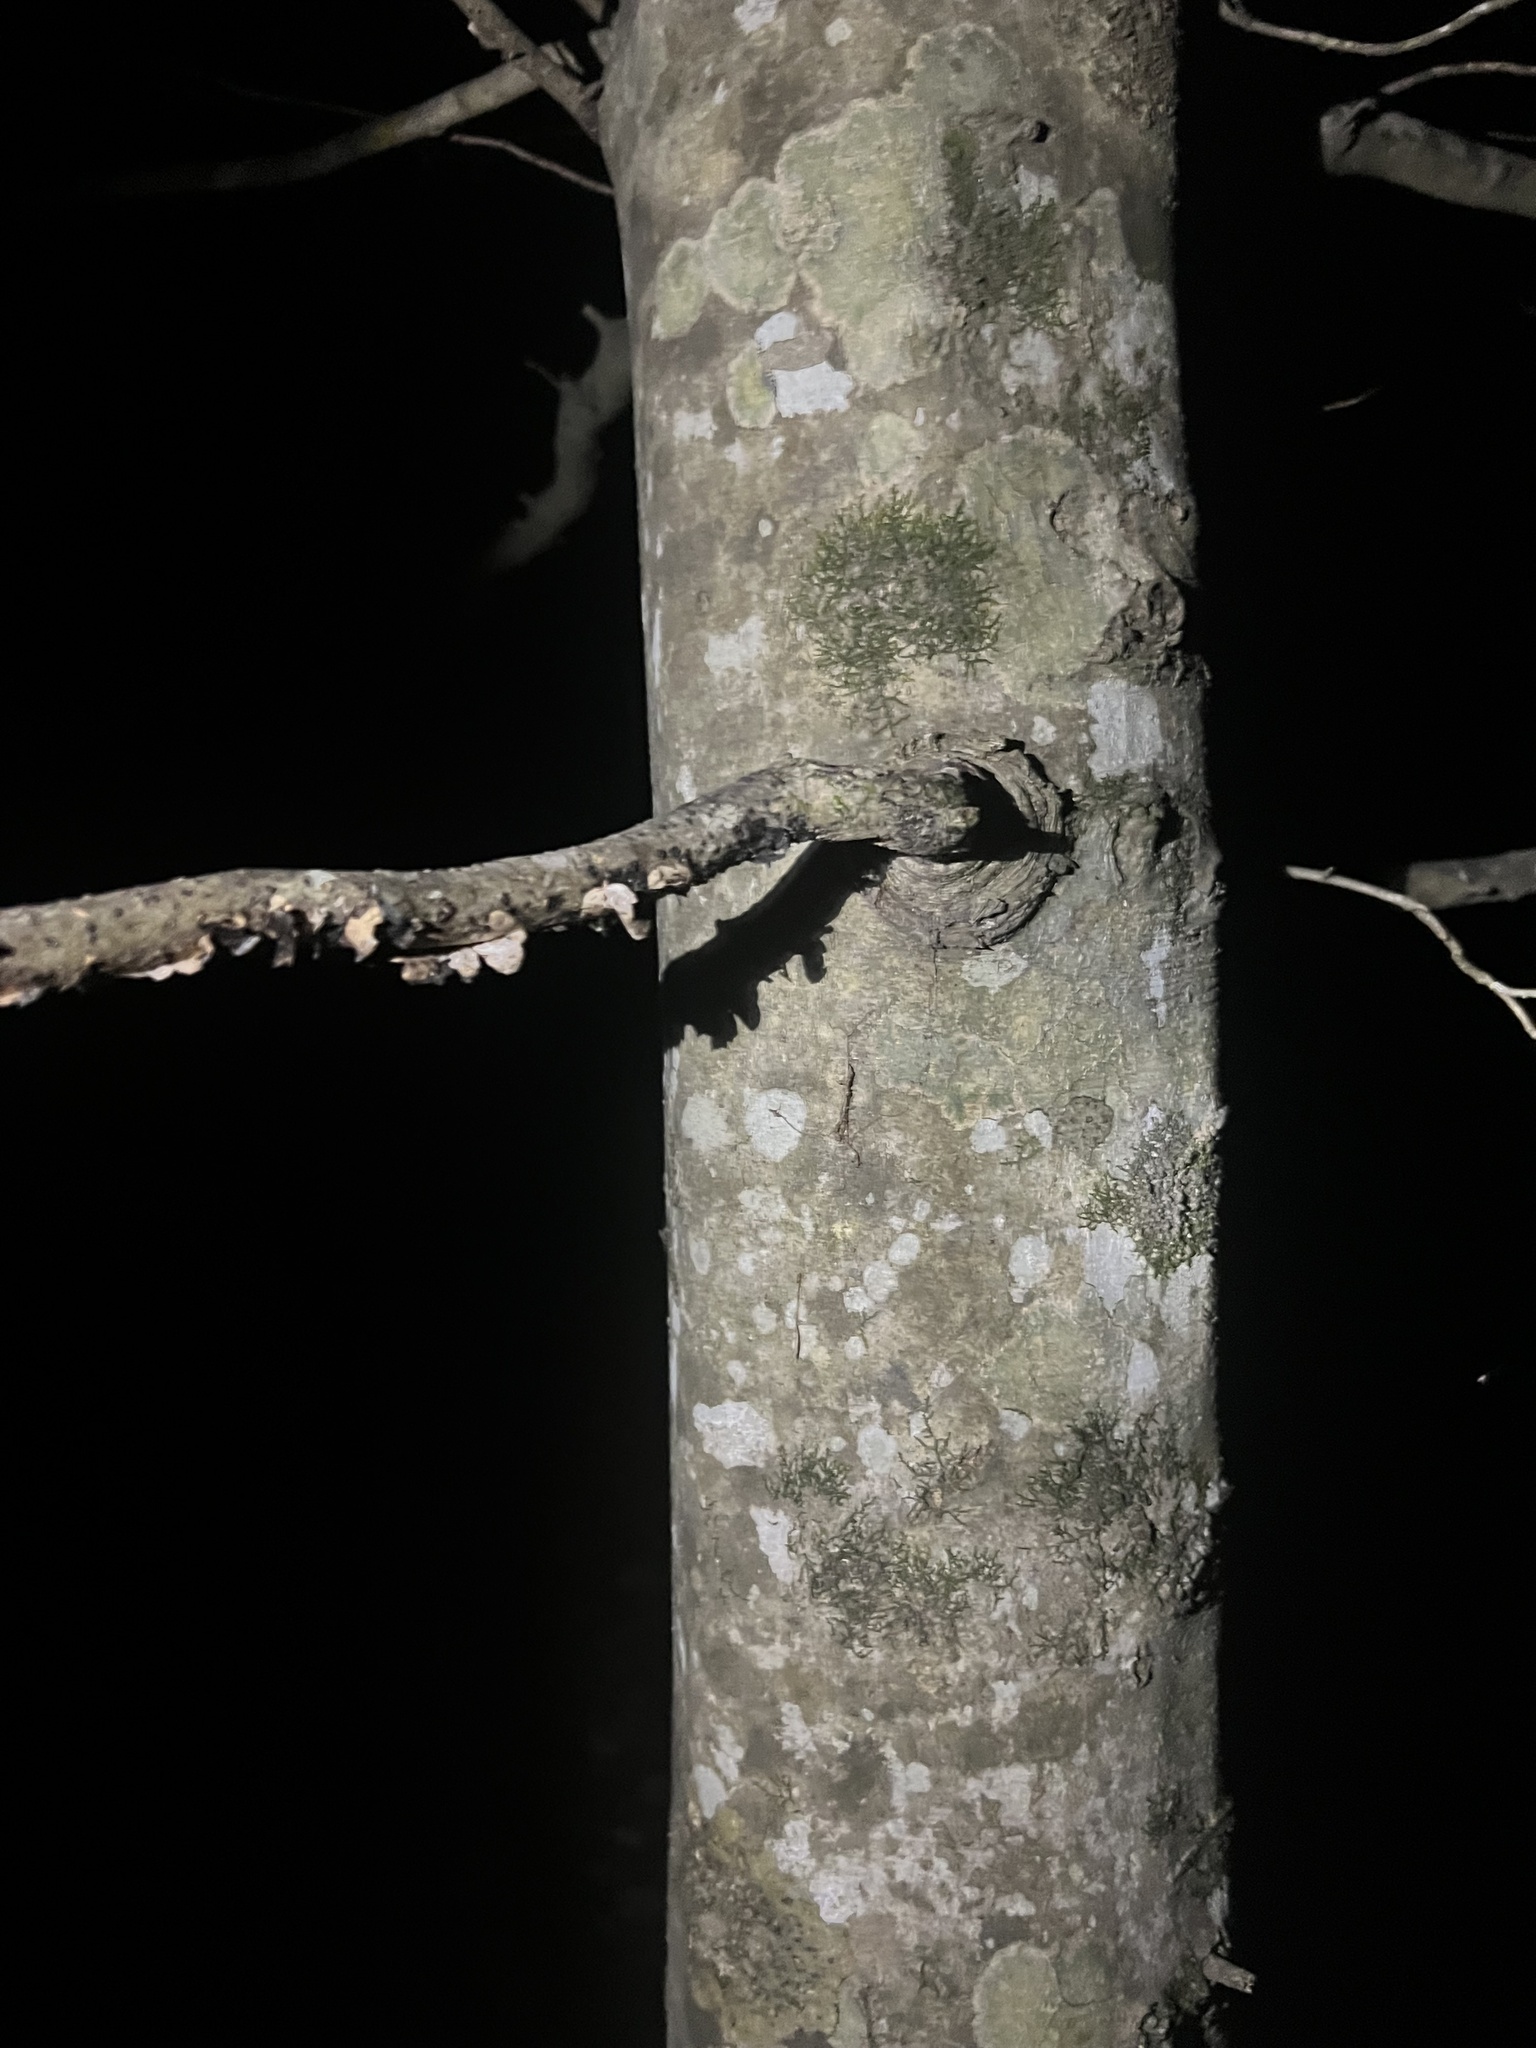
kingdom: Plantae
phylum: Tracheophyta
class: Magnoliopsida
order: Fagales
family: Fagaceae
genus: Fagus
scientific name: Fagus grandifolia
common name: American beech
